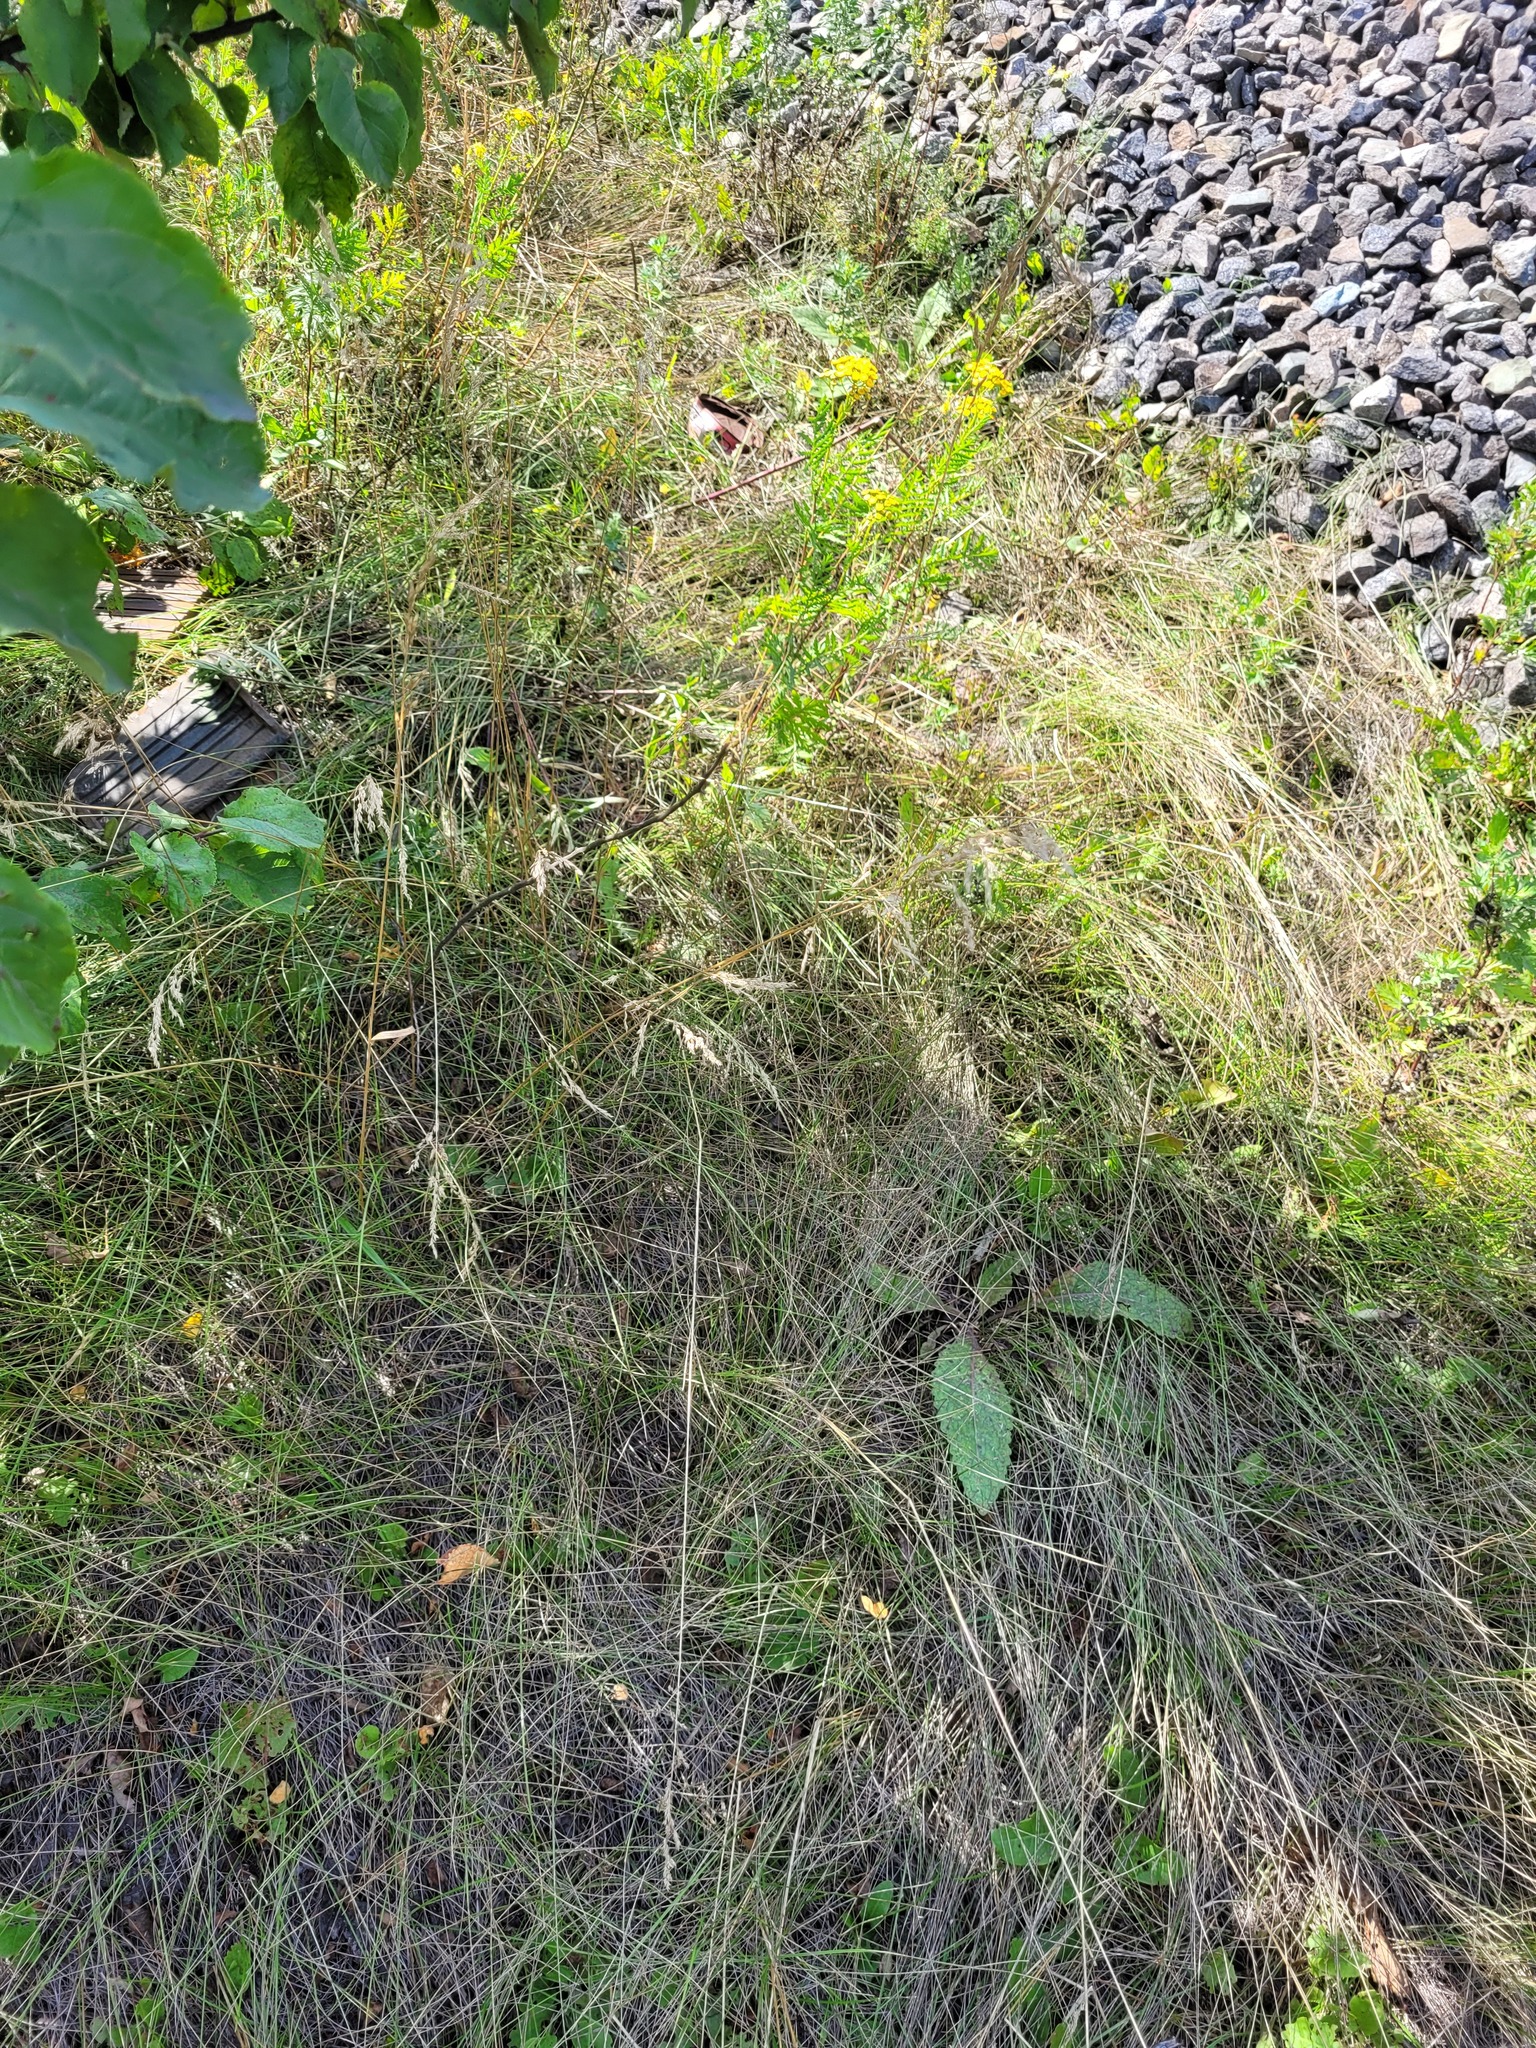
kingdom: Plantae
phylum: Tracheophyta
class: Liliopsida
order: Poales
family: Poaceae
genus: Poa
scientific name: Poa angustifolia
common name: Narrow-leaved meadow-grass
